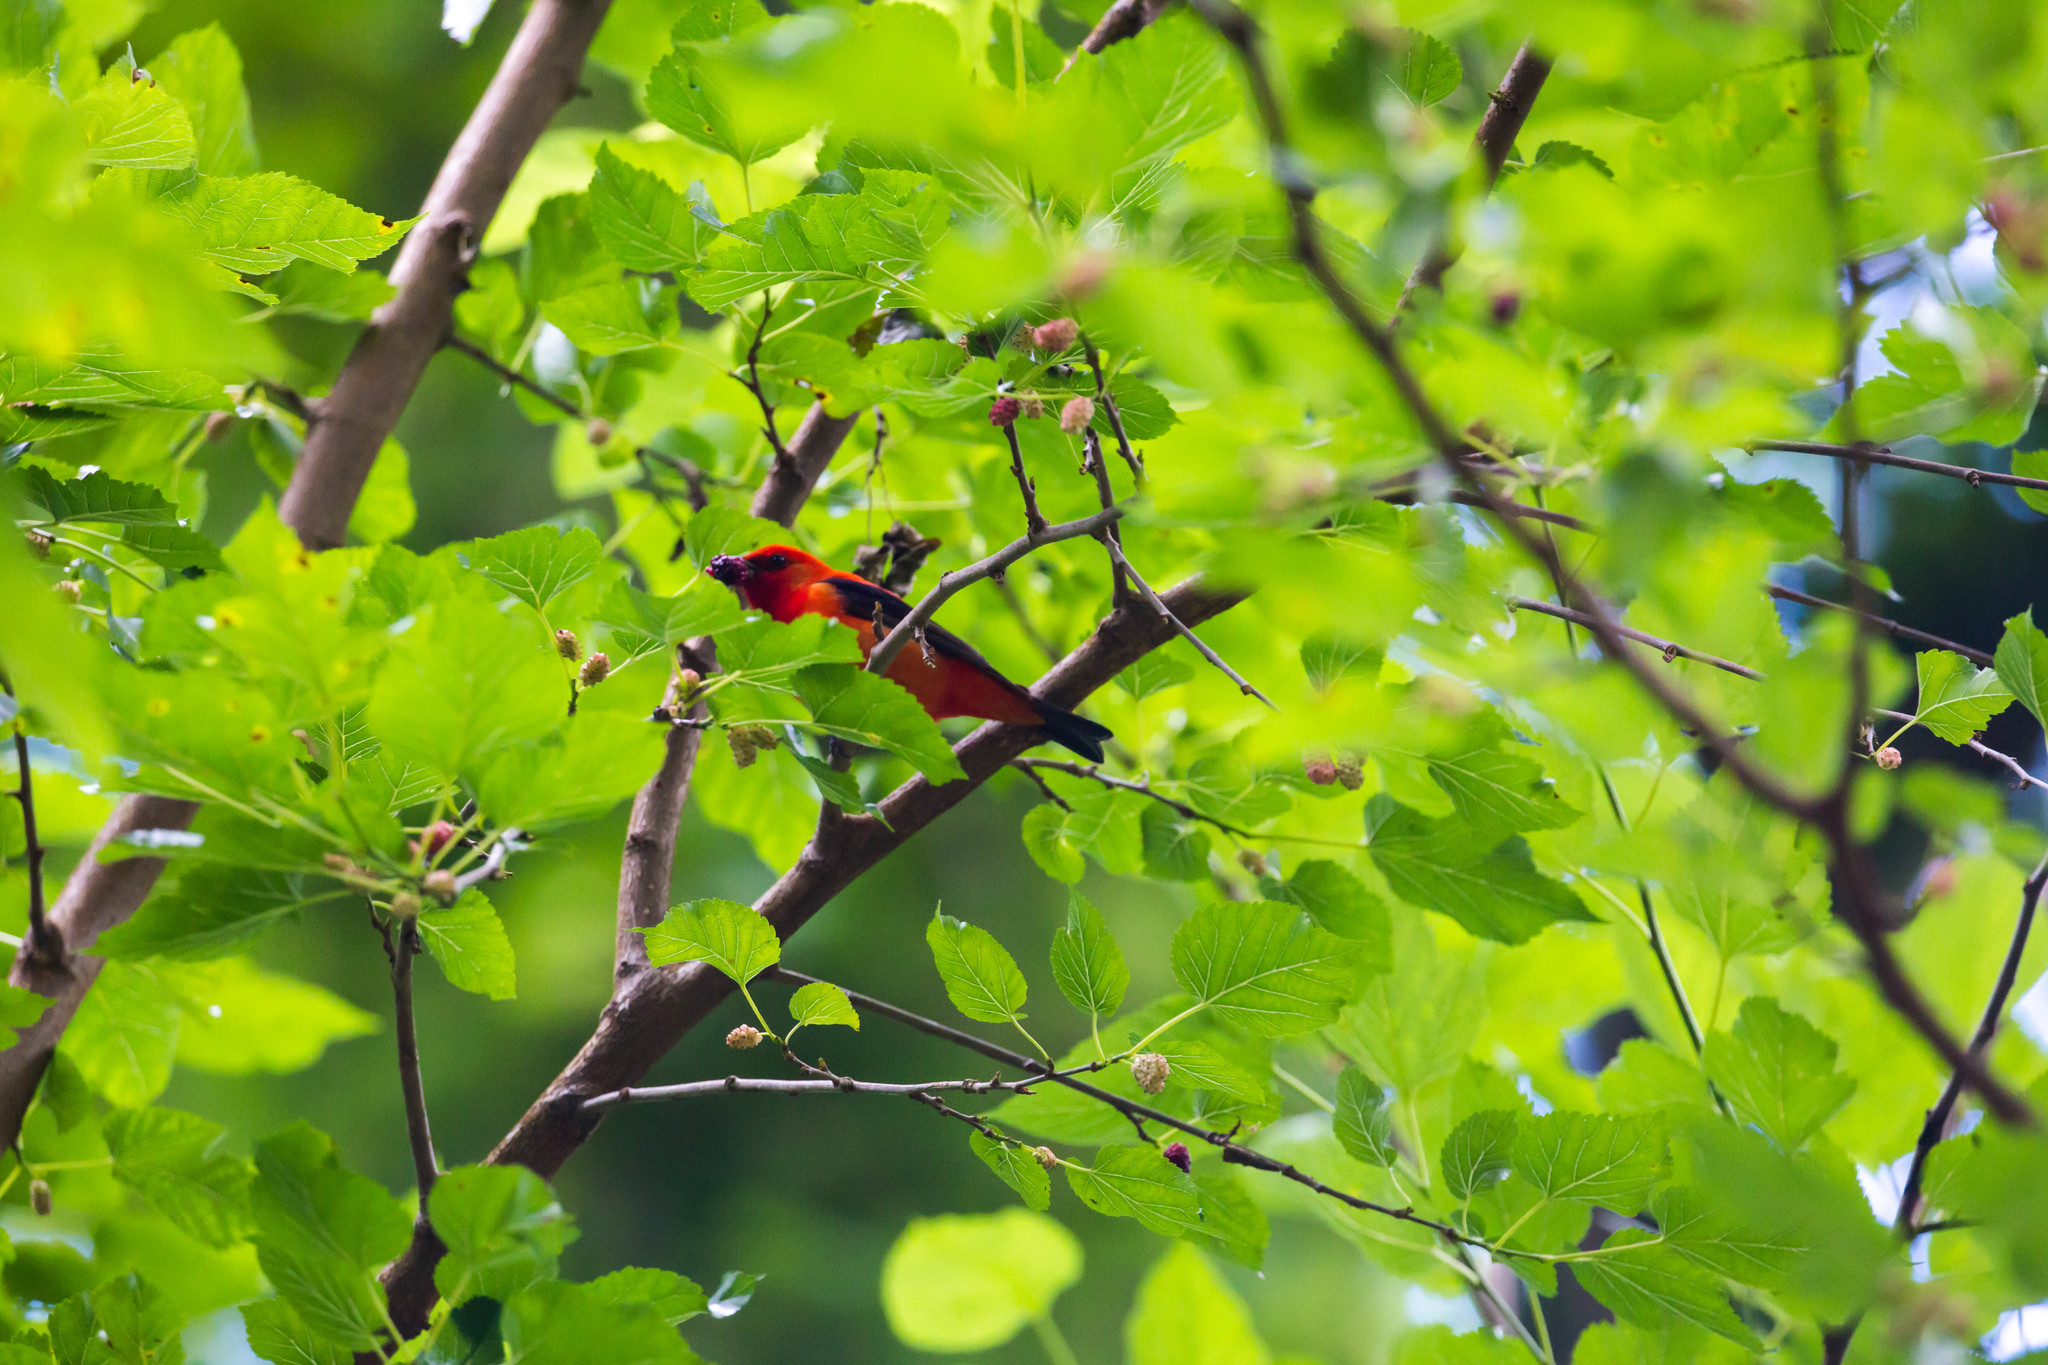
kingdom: Animalia
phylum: Chordata
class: Aves
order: Passeriformes
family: Cardinalidae
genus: Piranga
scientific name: Piranga olivacea
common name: Scarlet tanager
